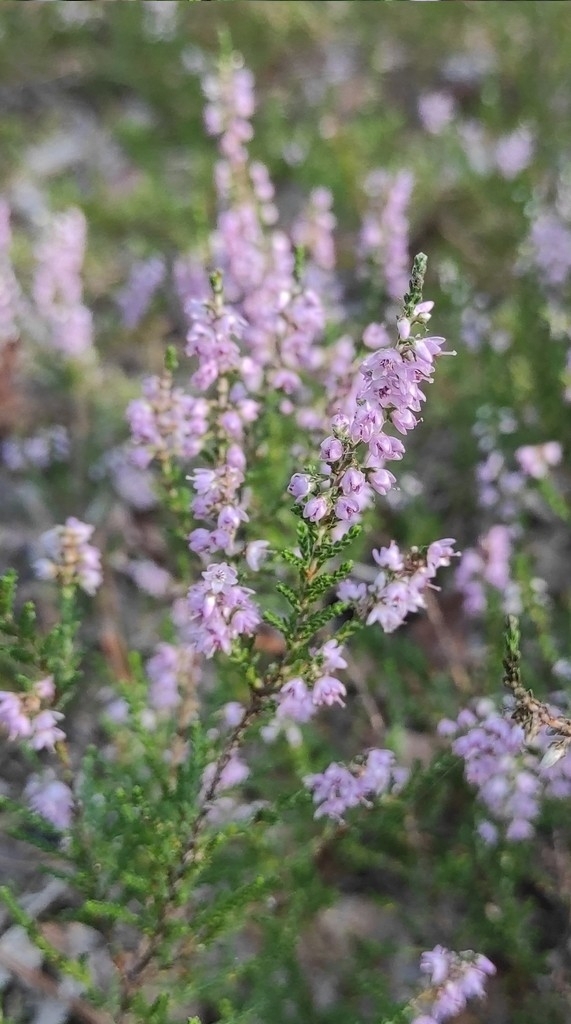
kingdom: Plantae
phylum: Tracheophyta
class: Magnoliopsida
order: Ericales
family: Ericaceae
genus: Calluna
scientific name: Calluna vulgaris
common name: Heather
